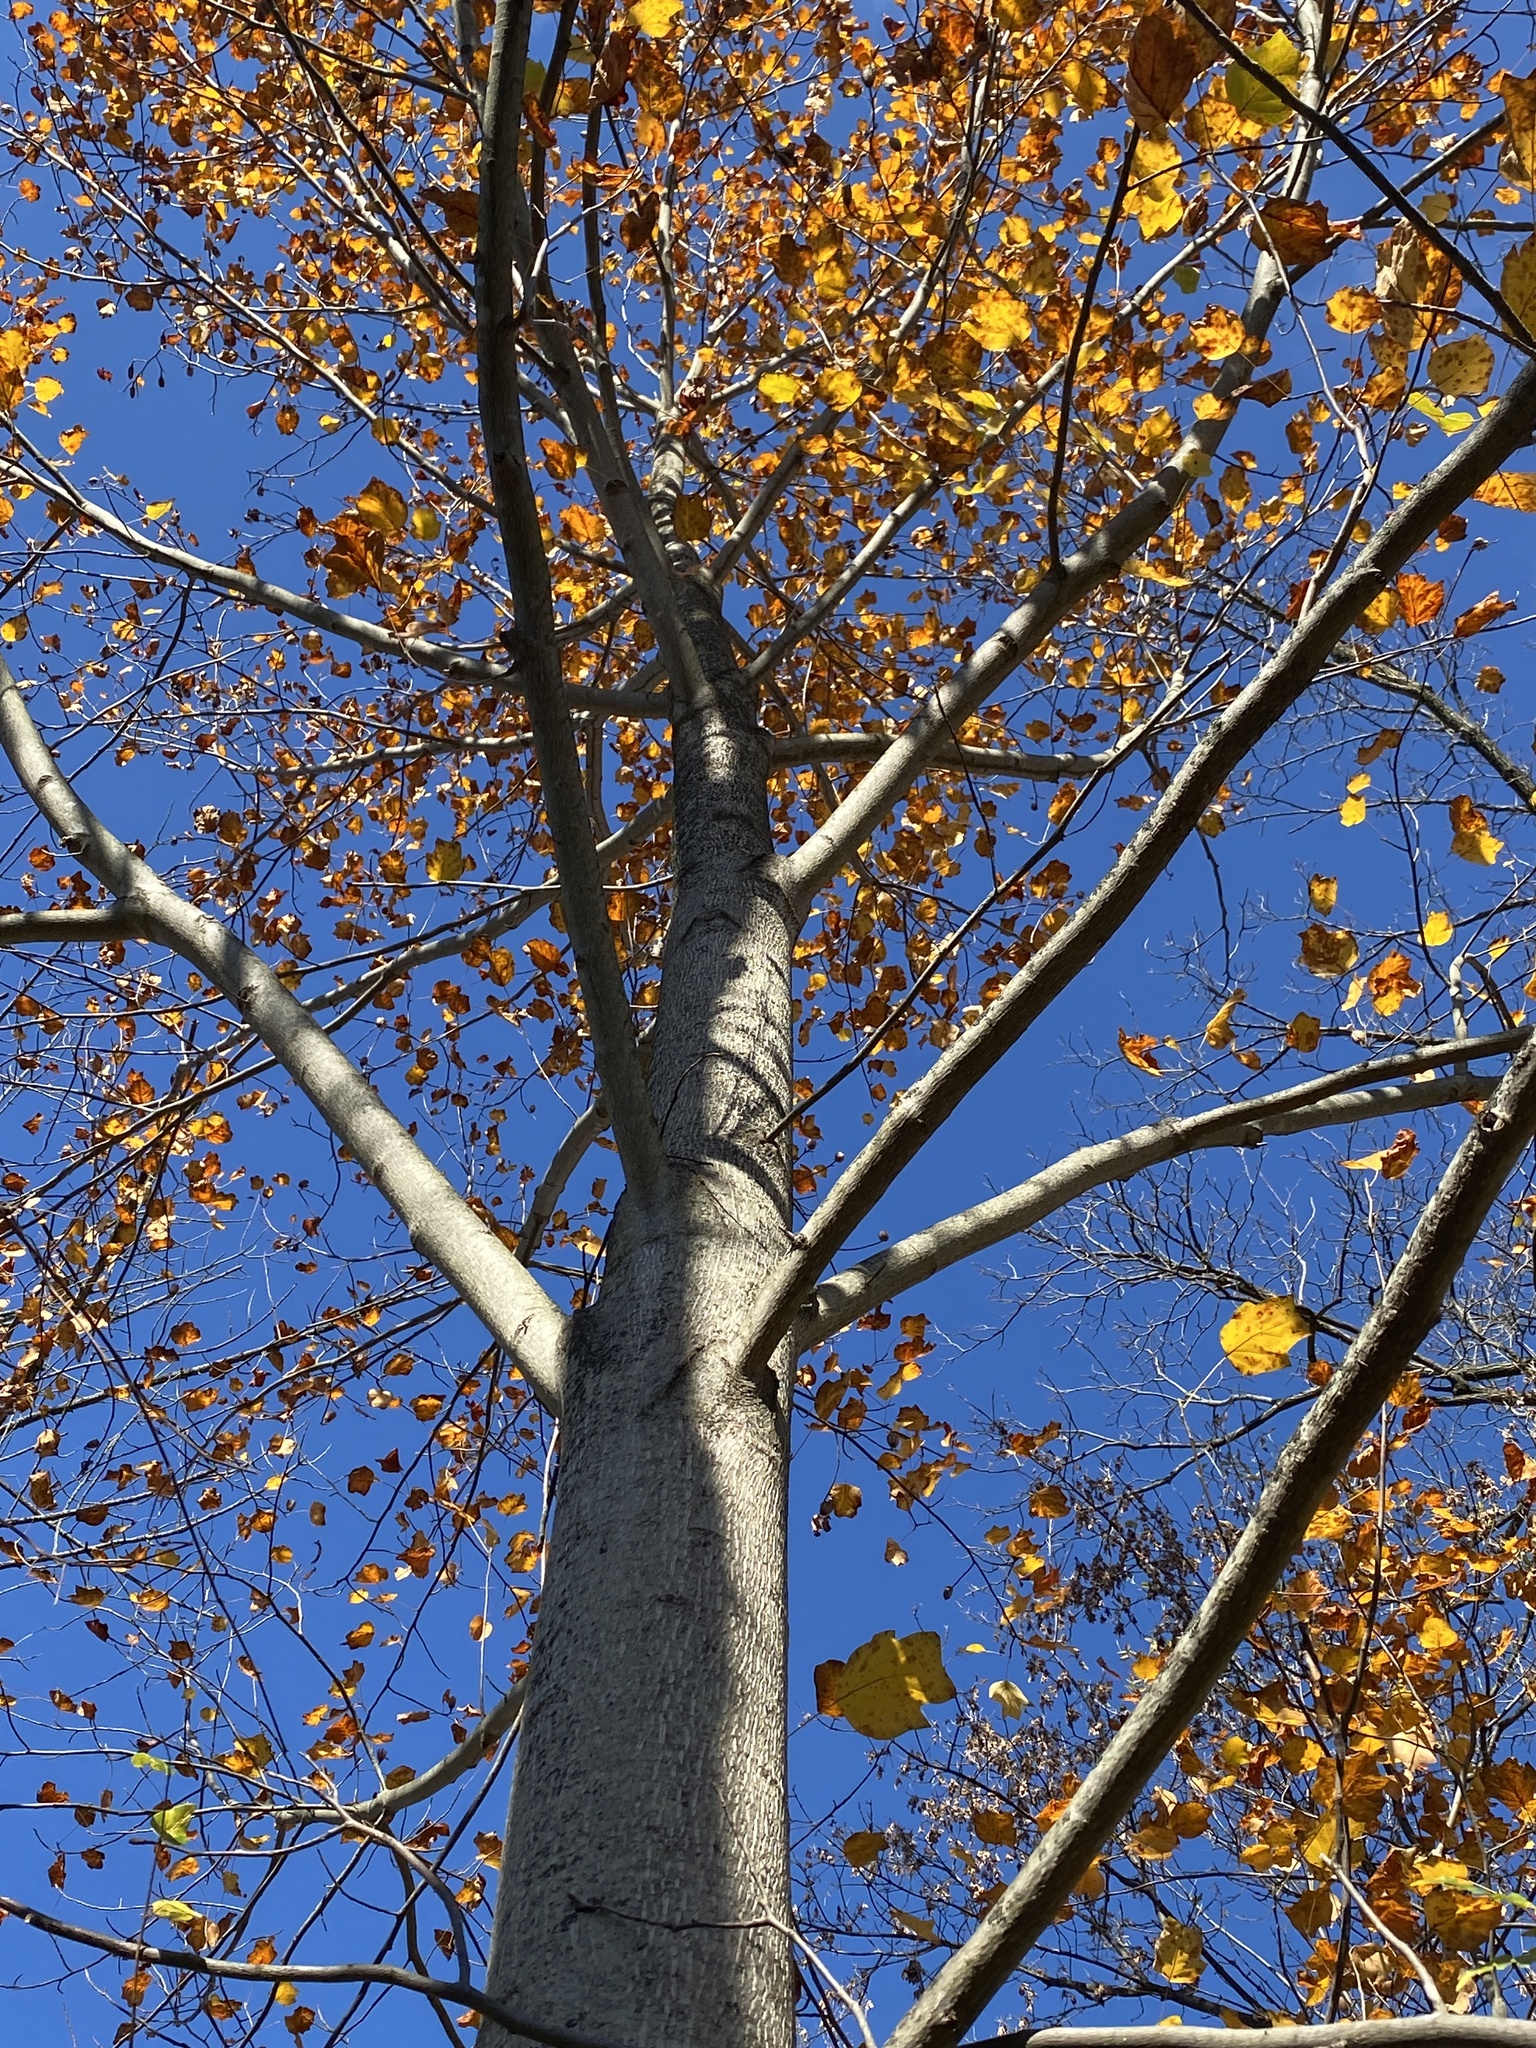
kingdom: Plantae
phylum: Tracheophyta
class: Magnoliopsida
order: Magnoliales
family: Magnoliaceae
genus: Liriodendron
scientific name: Liriodendron tulipifera
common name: Tulip tree
